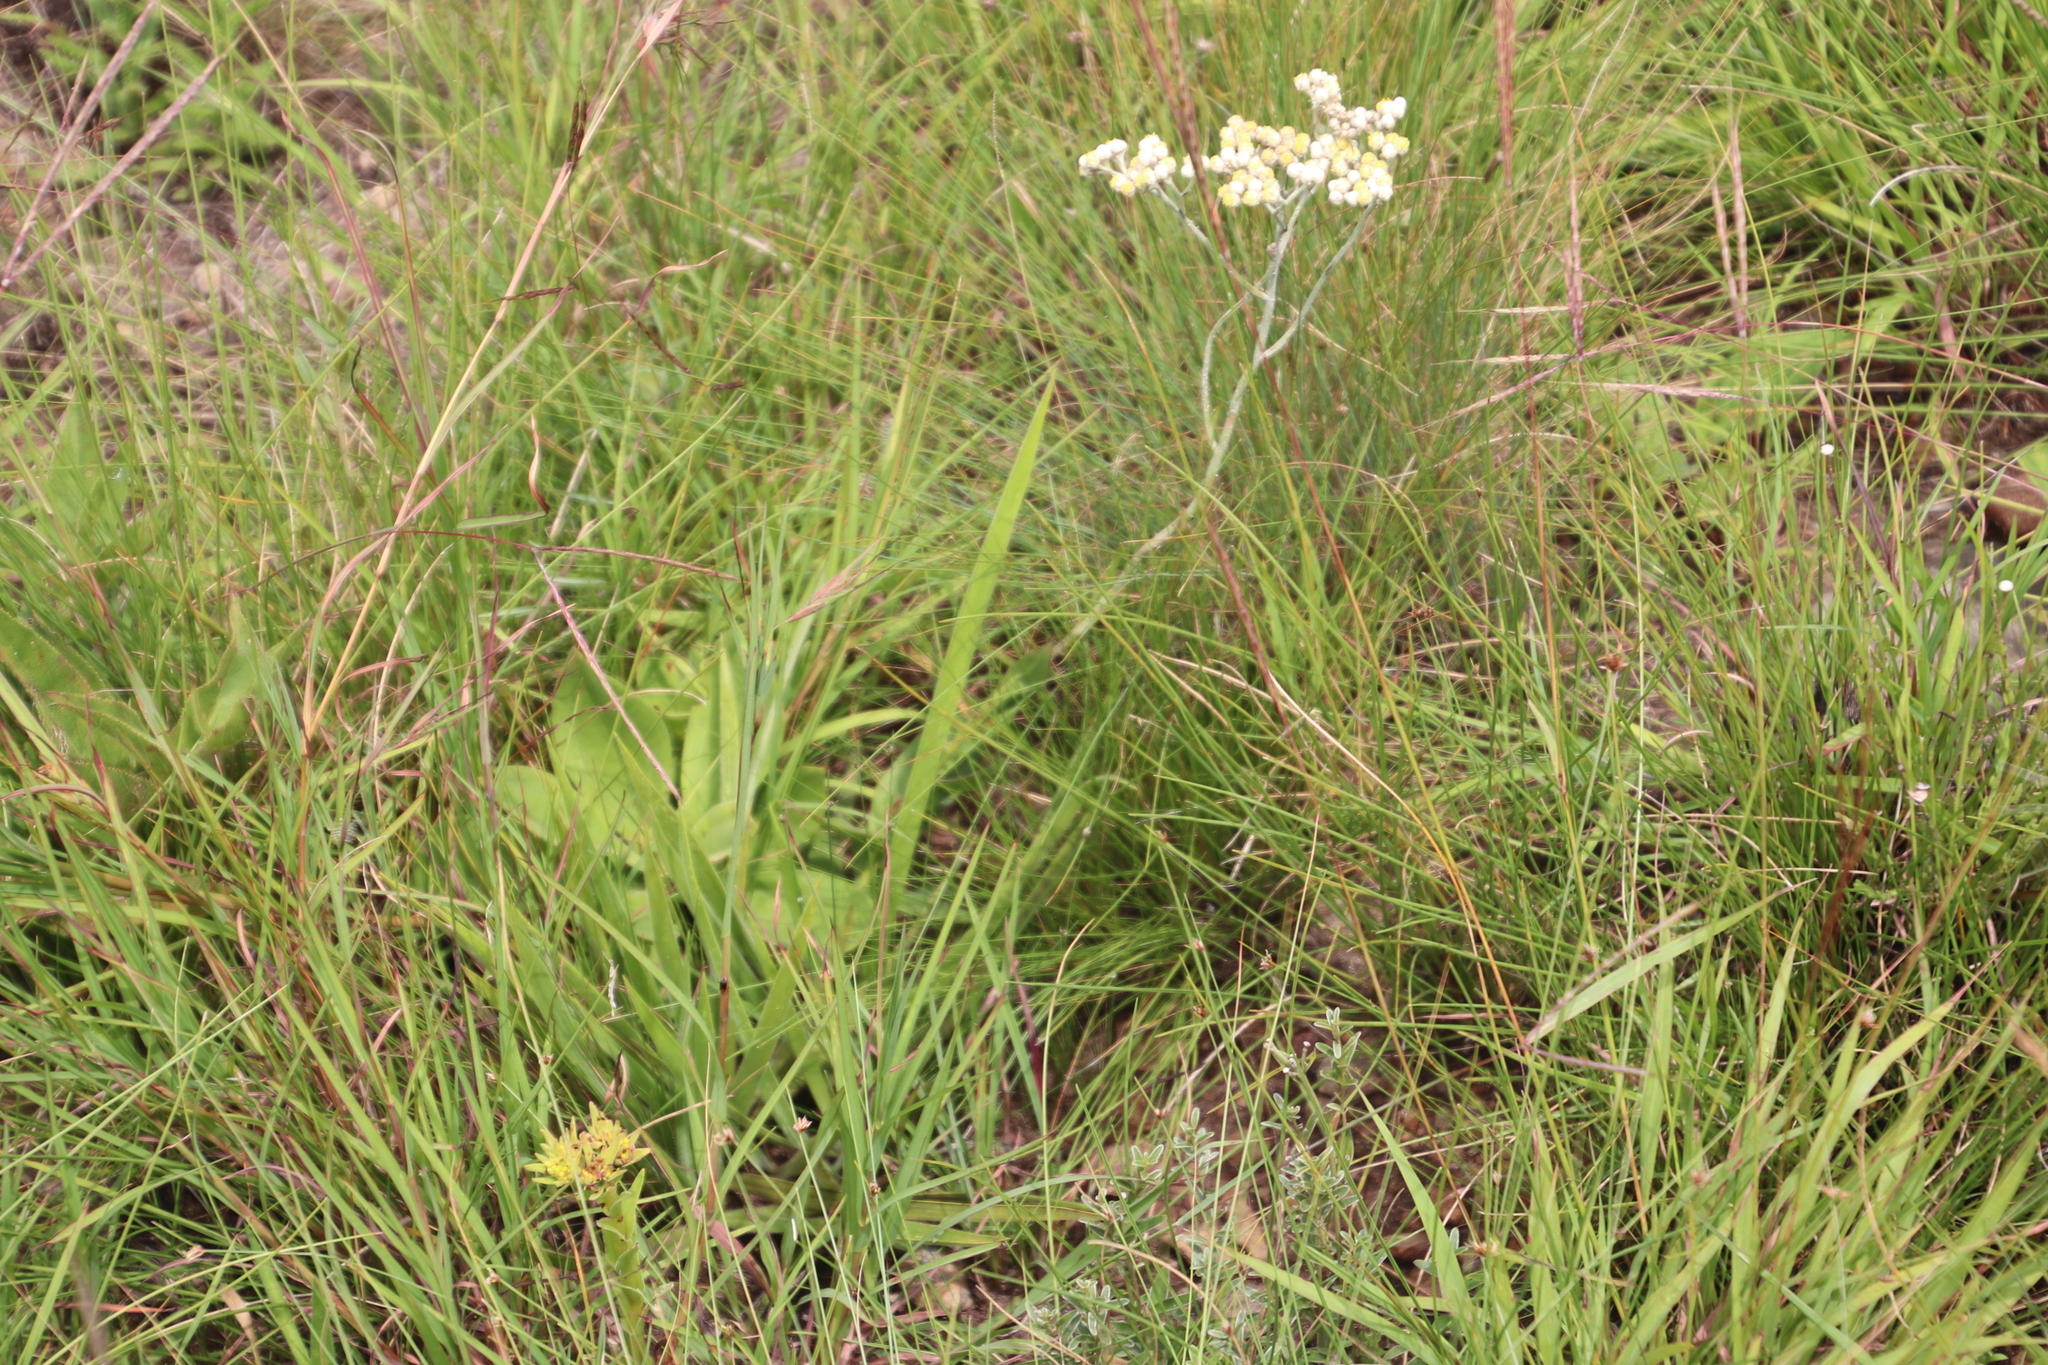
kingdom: Plantae
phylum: Tracheophyta
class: Magnoliopsida
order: Asterales
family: Asteraceae
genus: Helichrysum
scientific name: Helichrysum platypterum
